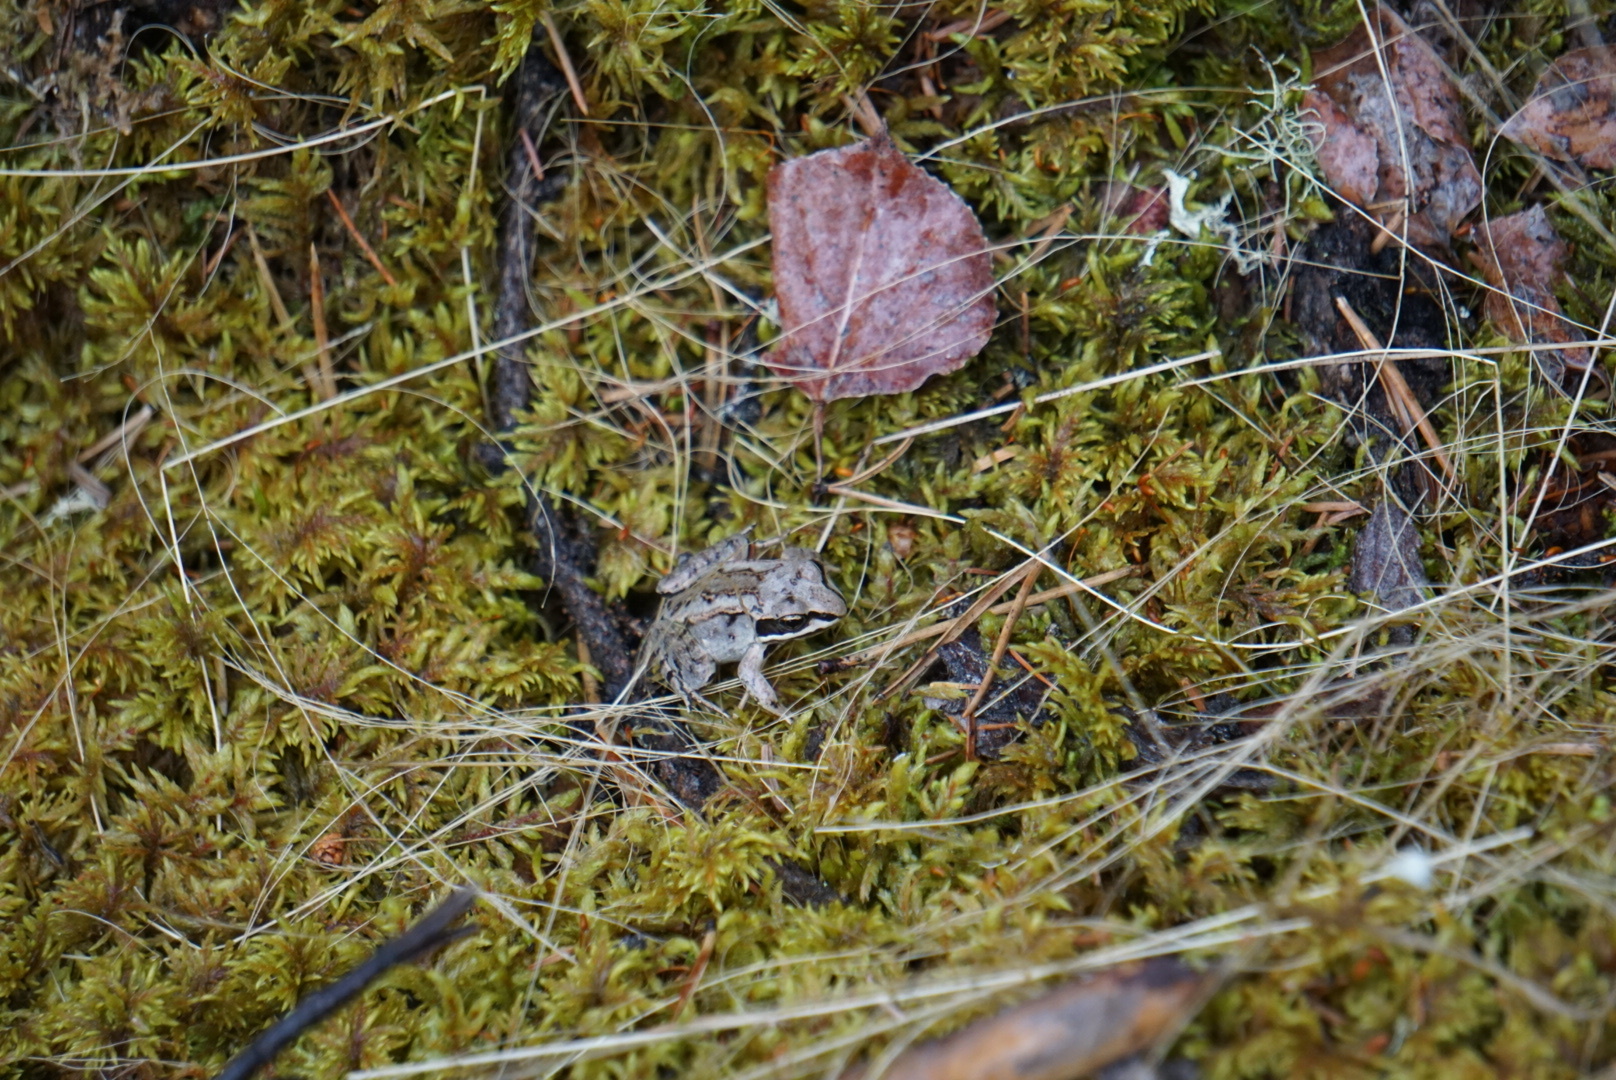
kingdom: Animalia
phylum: Chordata
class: Amphibia
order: Anura
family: Ranidae
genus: Lithobates
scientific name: Lithobates sylvaticus
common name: Wood frog
